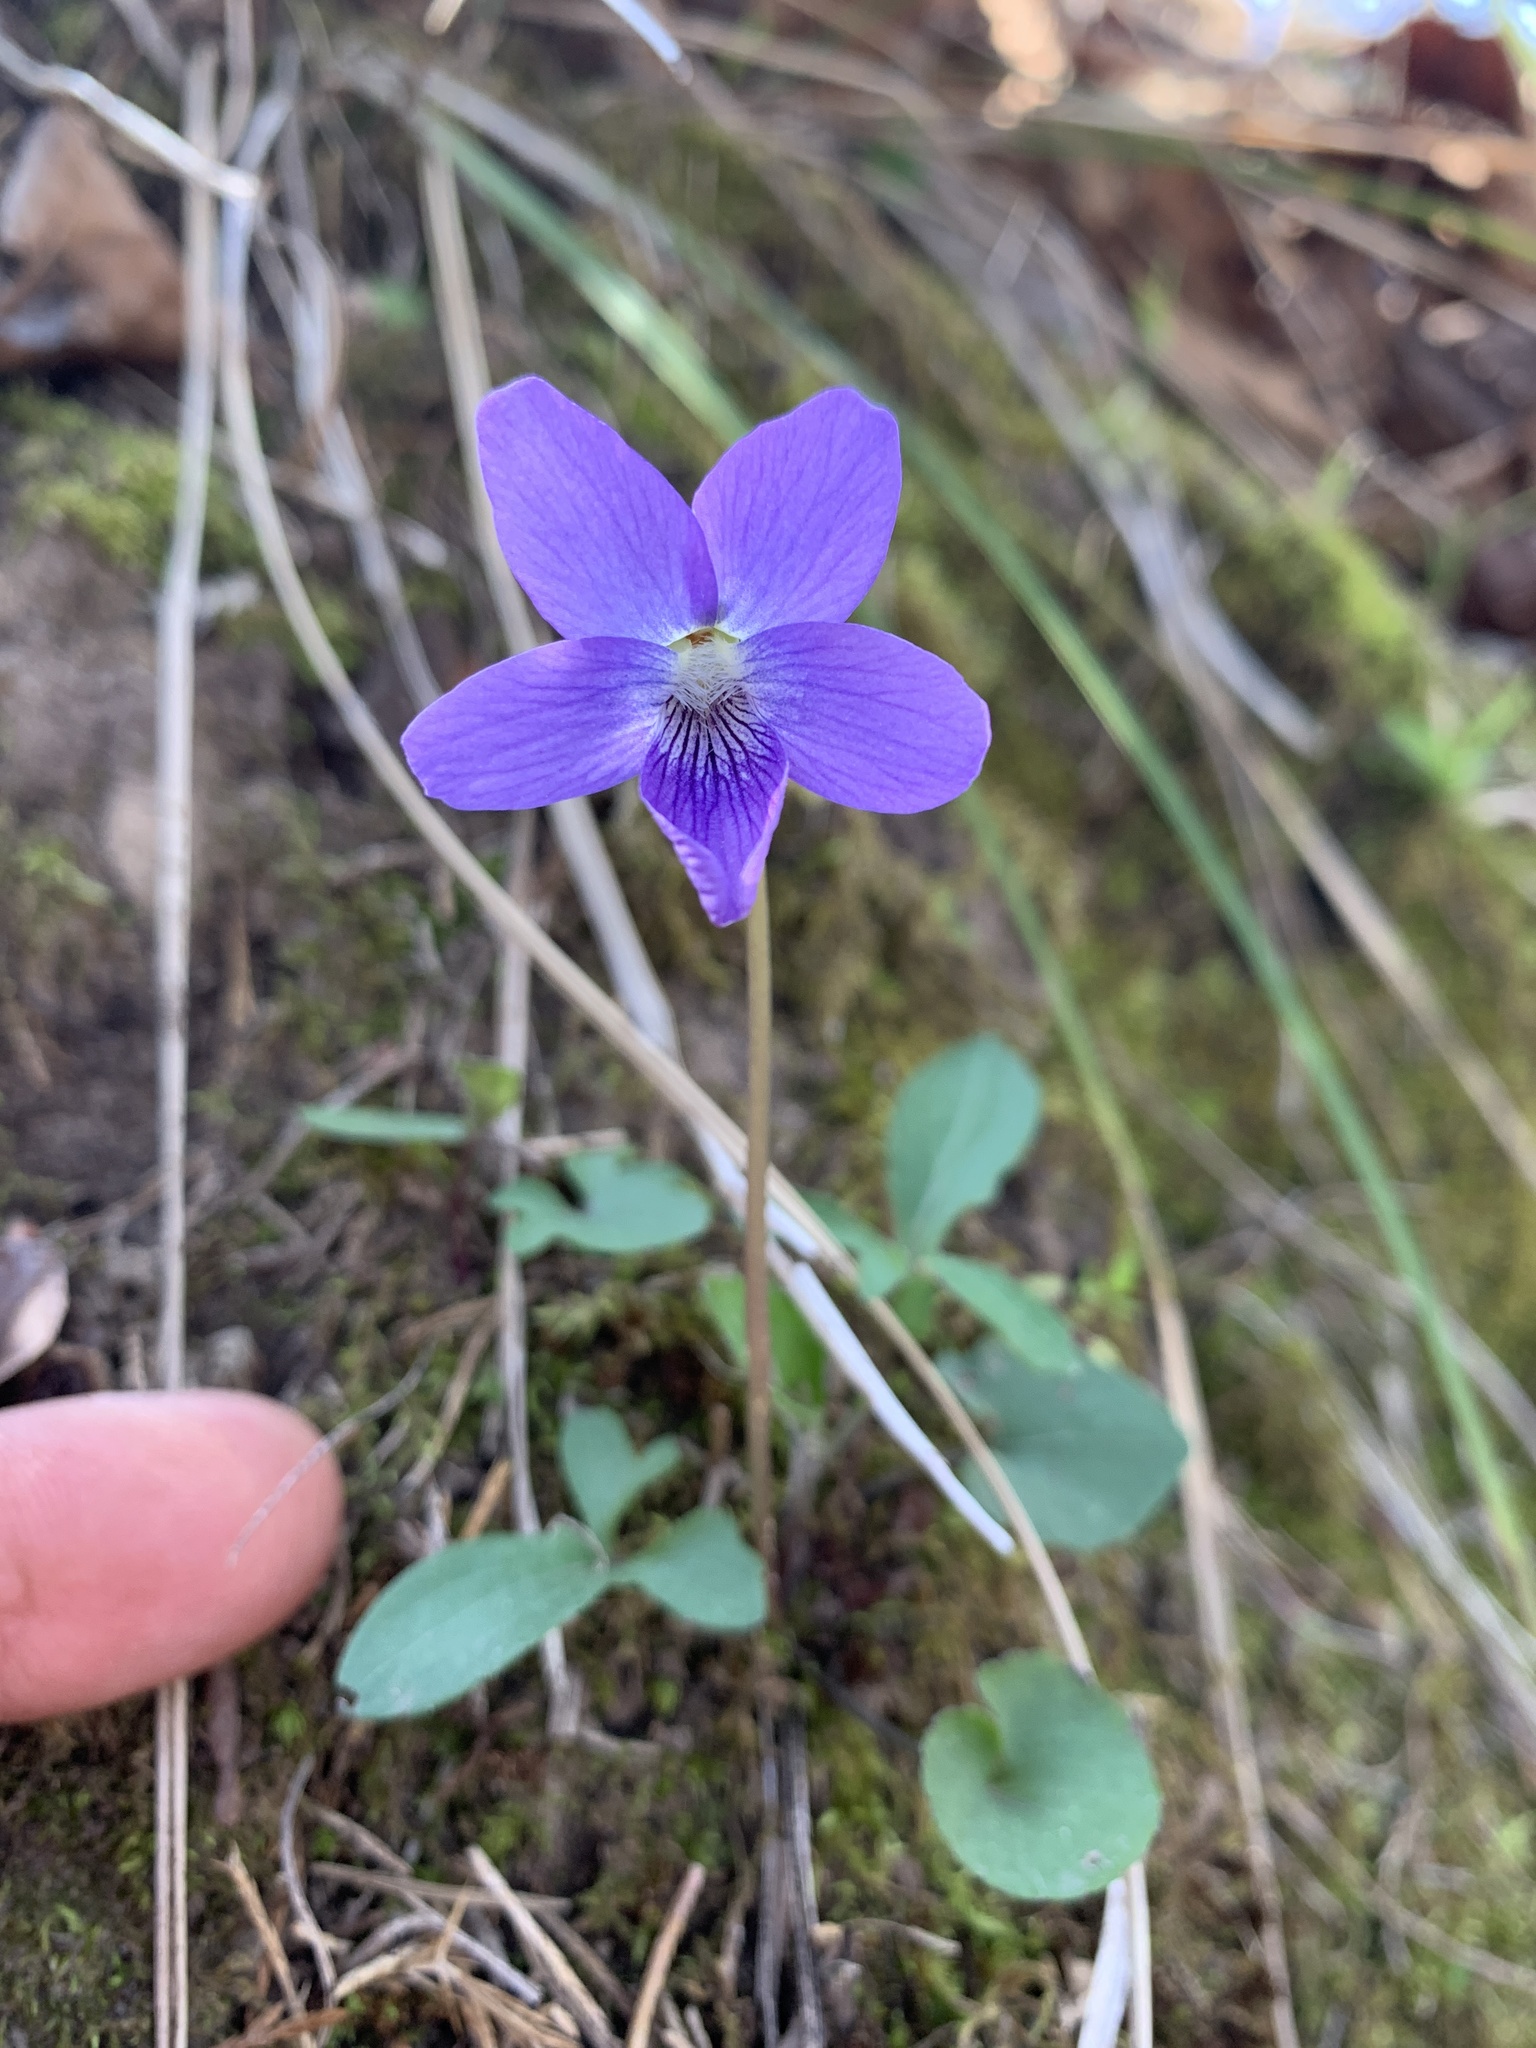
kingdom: Plantae
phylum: Tracheophyta
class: Magnoliopsida
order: Malpighiales
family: Violaceae
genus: Viola
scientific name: Viola palmata
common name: Early blue violet
